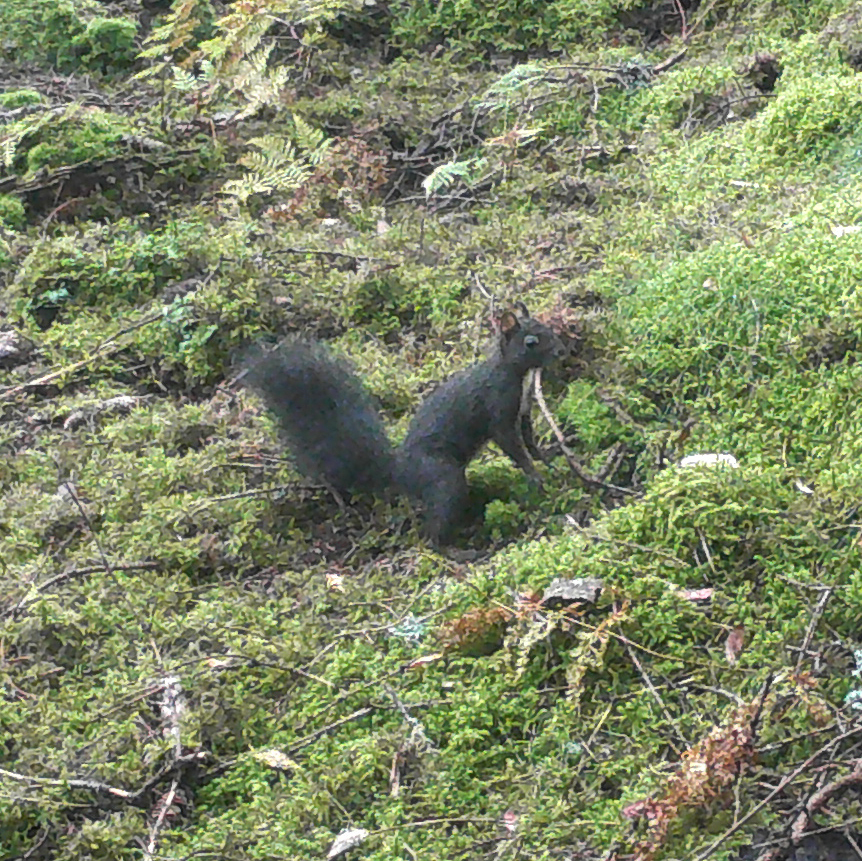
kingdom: Animalia
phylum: Chordata
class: Mammalia
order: Rodentia
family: Sciuridae
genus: Sciurus
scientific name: Sciurus vulgaris
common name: Eurasian red squirrel
